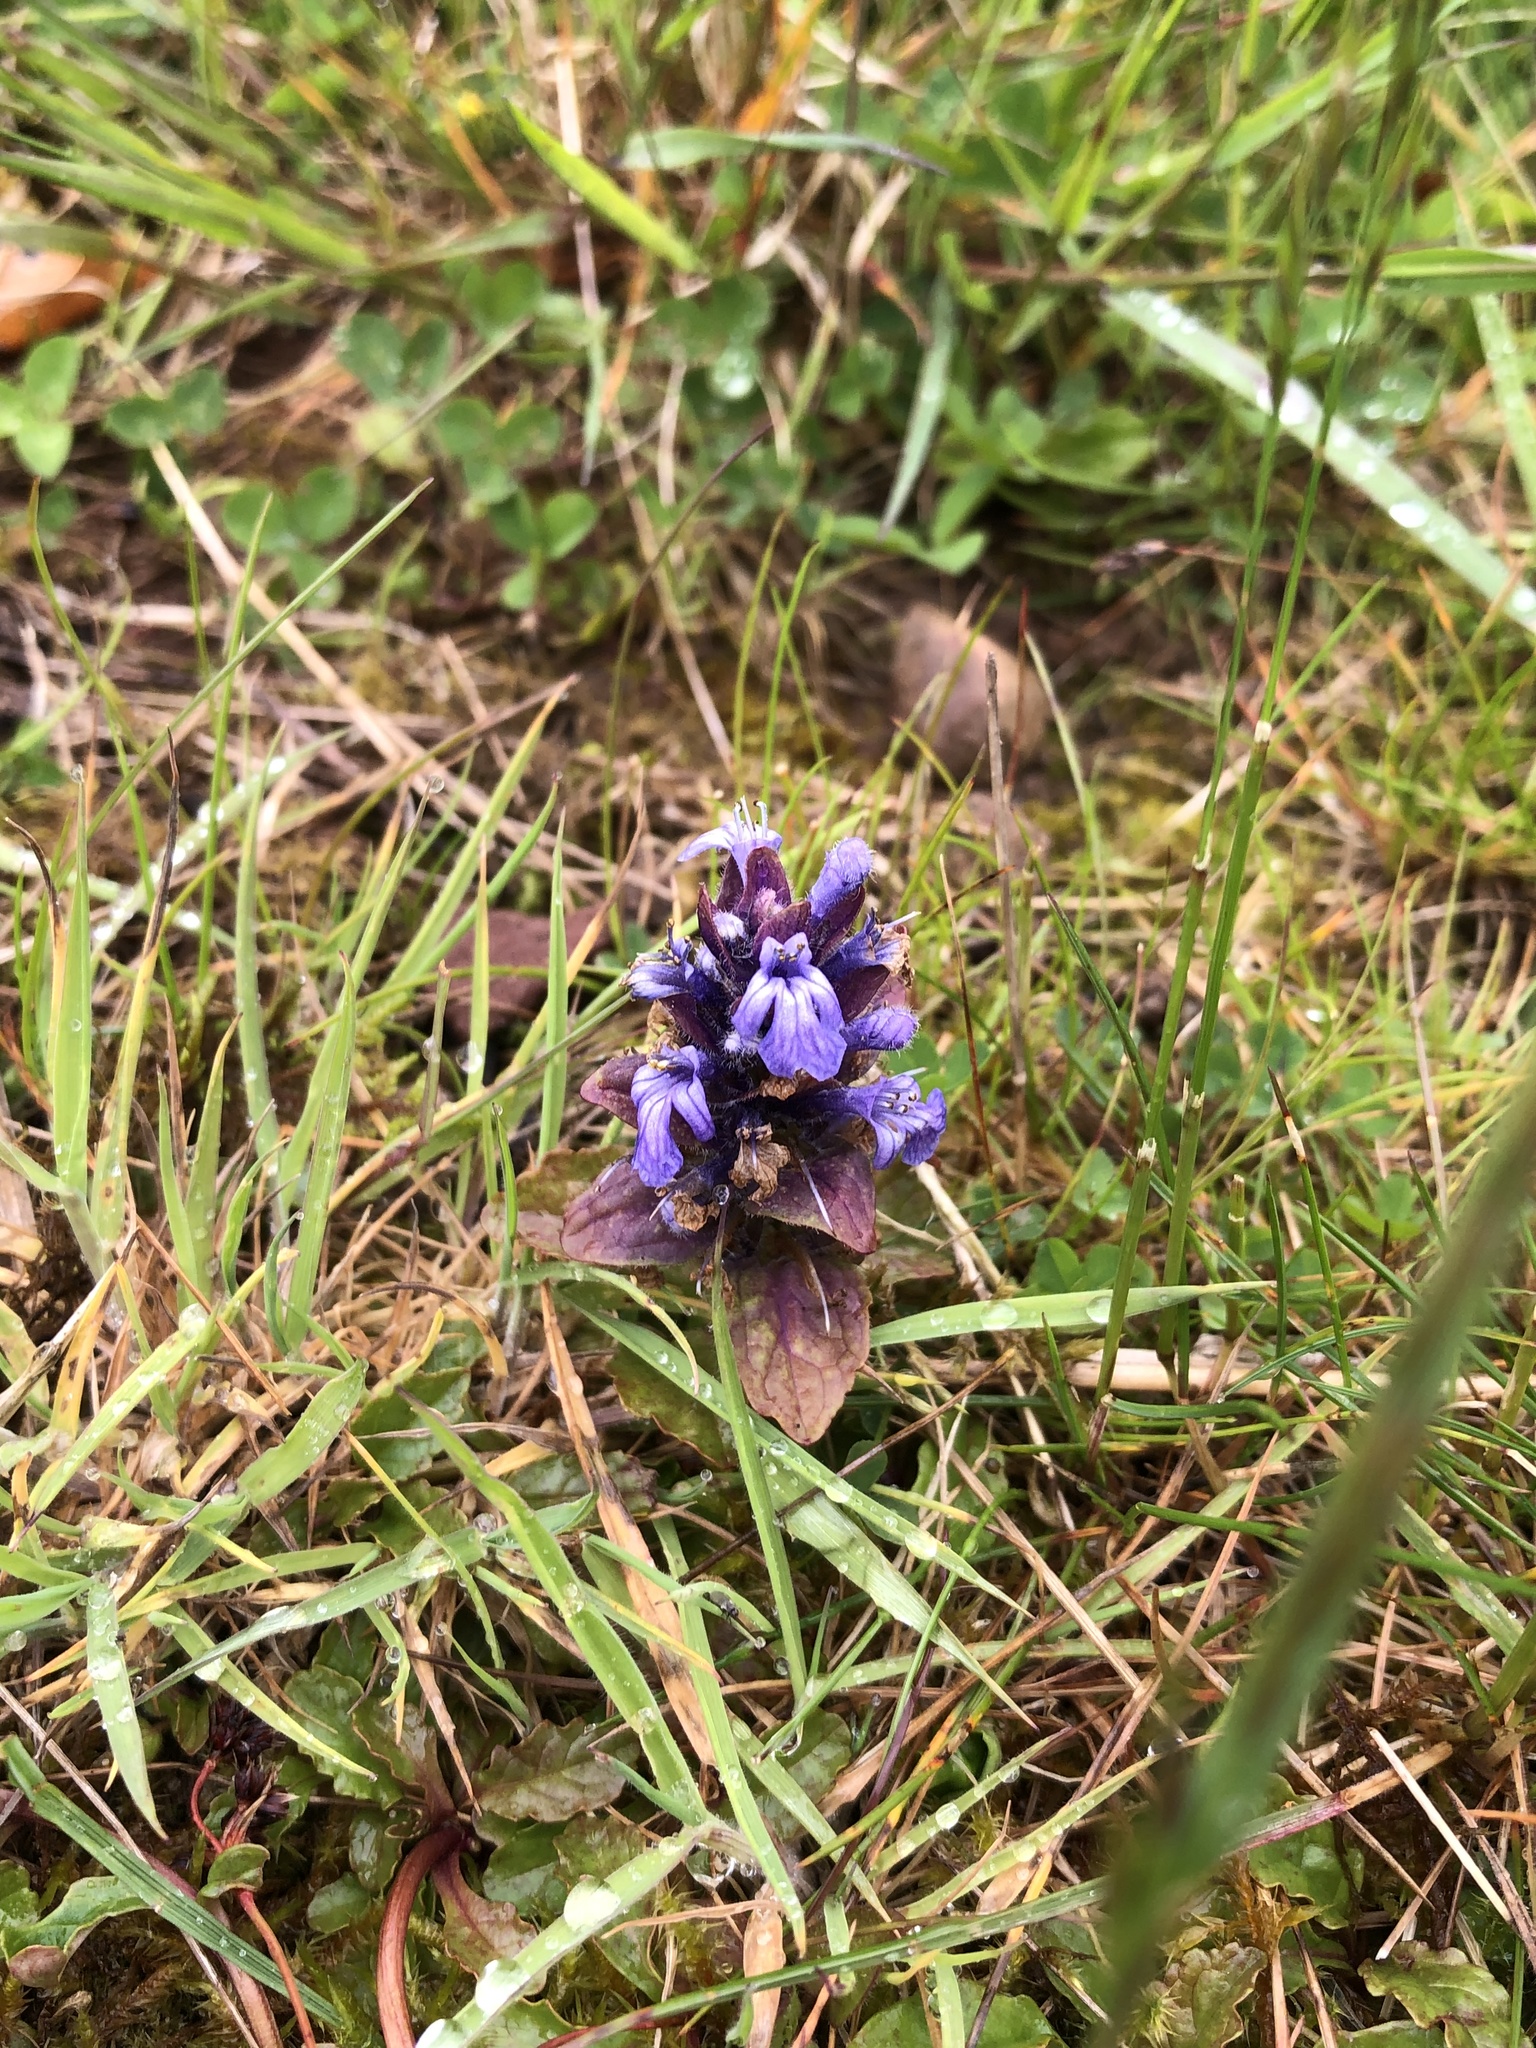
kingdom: Plantae
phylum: Tracheophyta
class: Magnoliopsida
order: Lamiales
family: Lamiaceae
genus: Ajuga
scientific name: Ajuga reptans
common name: Bugle
